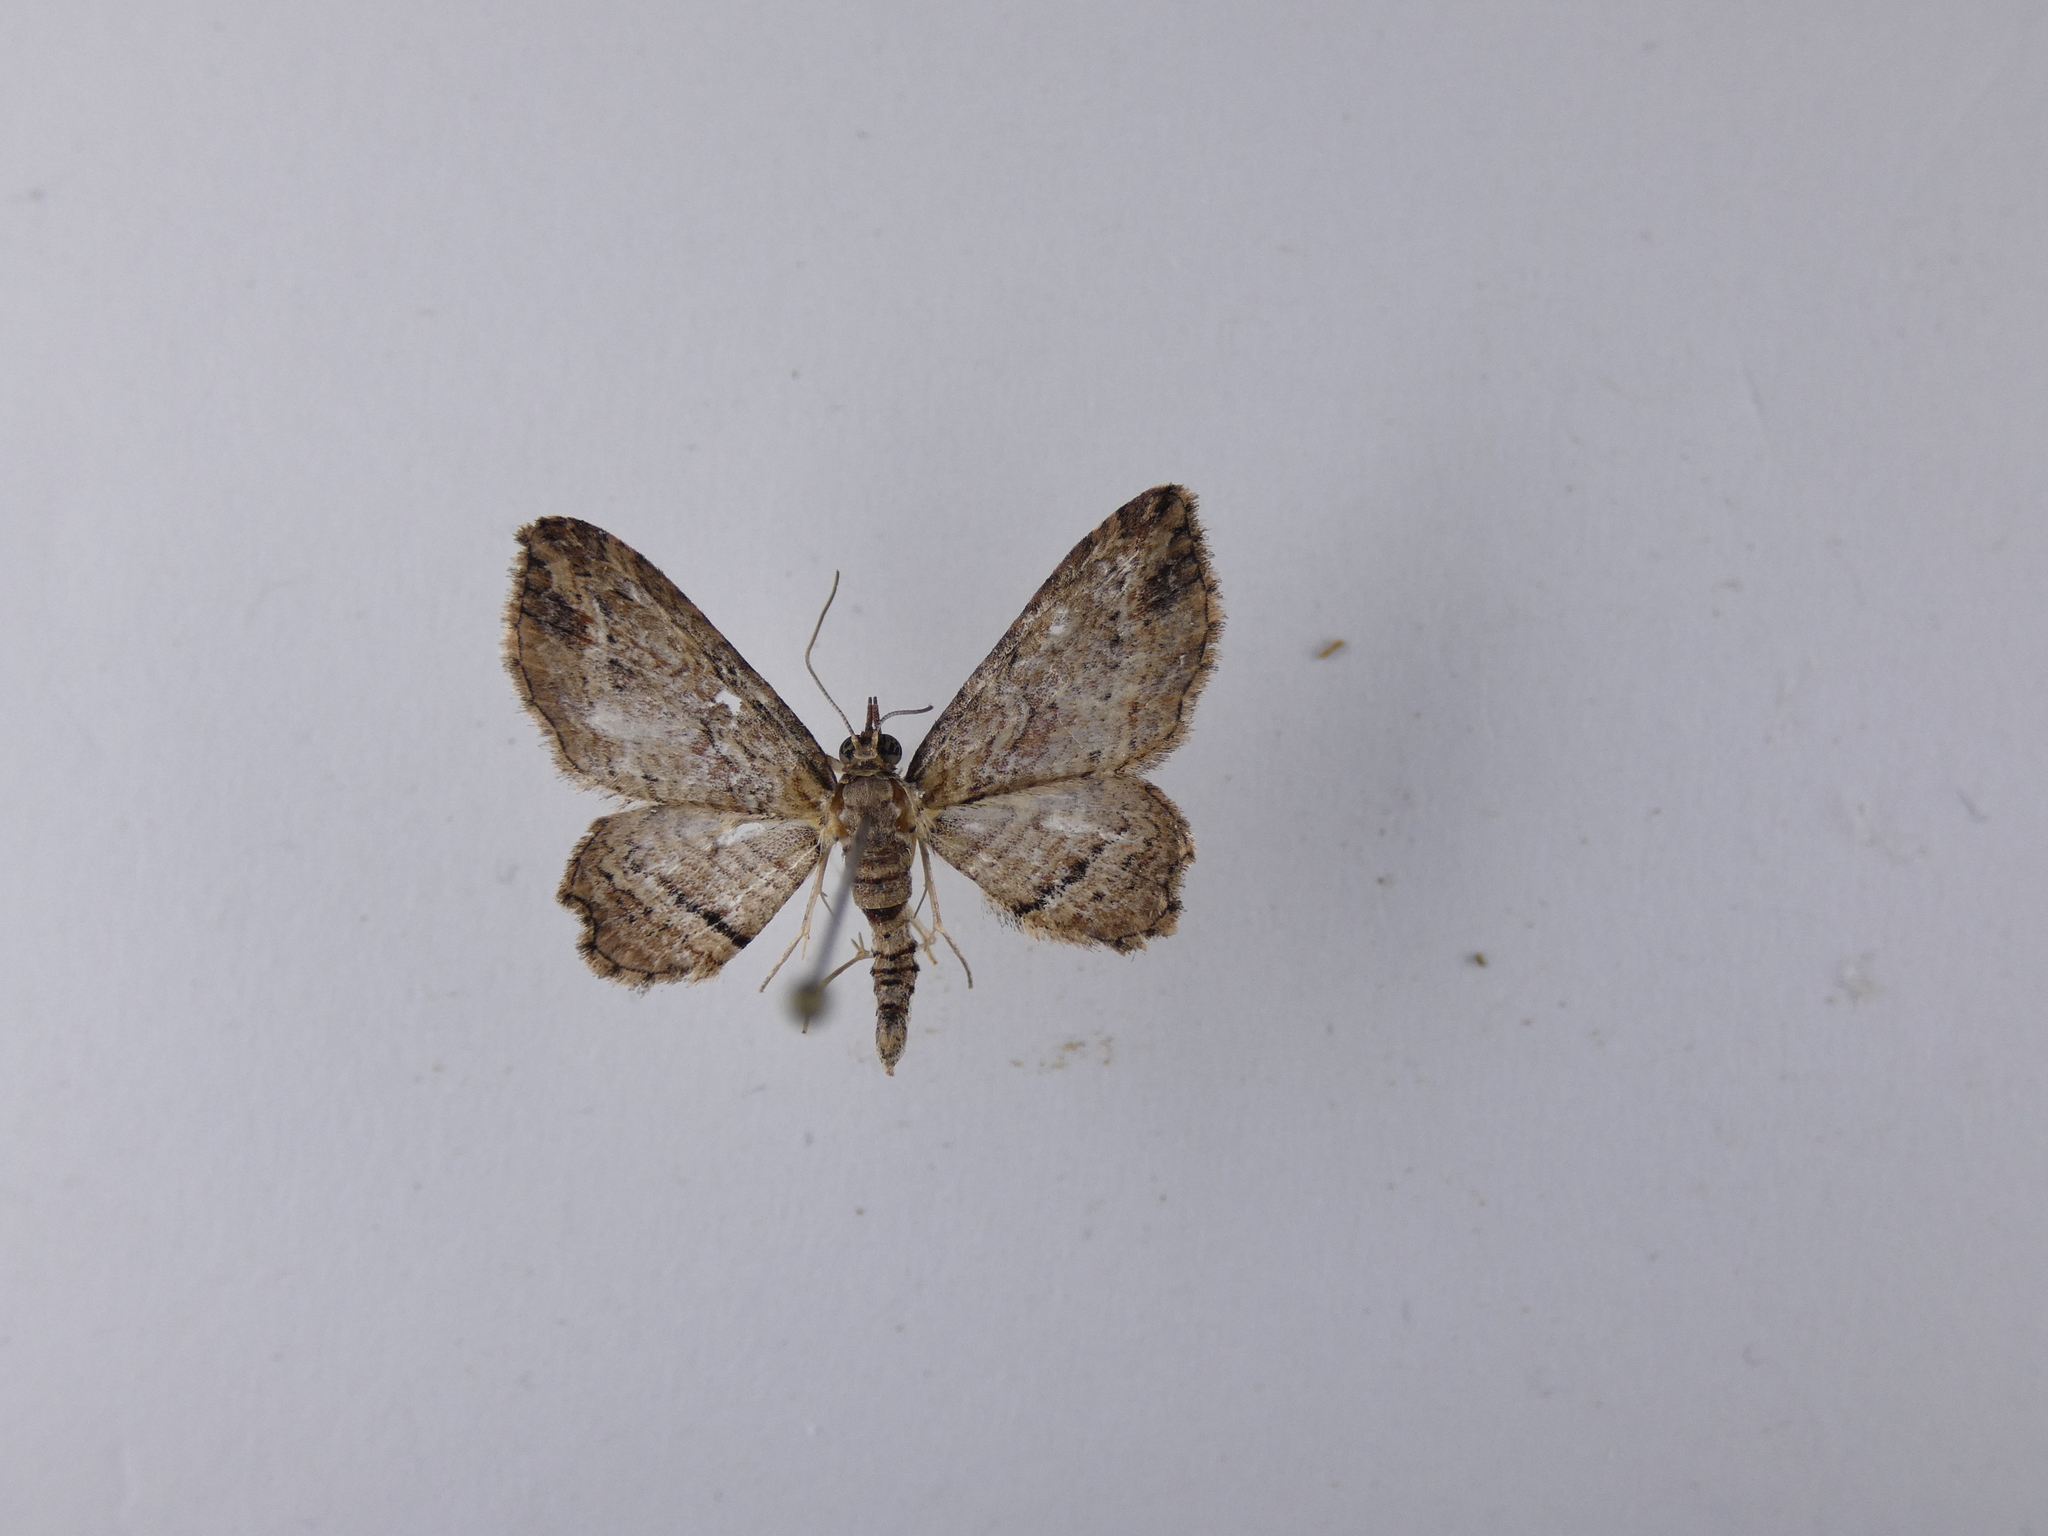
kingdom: Animalia
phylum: Arthropoda
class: Insecta
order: Lepidoptera
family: Geometridae
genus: Chloroclystis
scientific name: Chloroclystis filata
